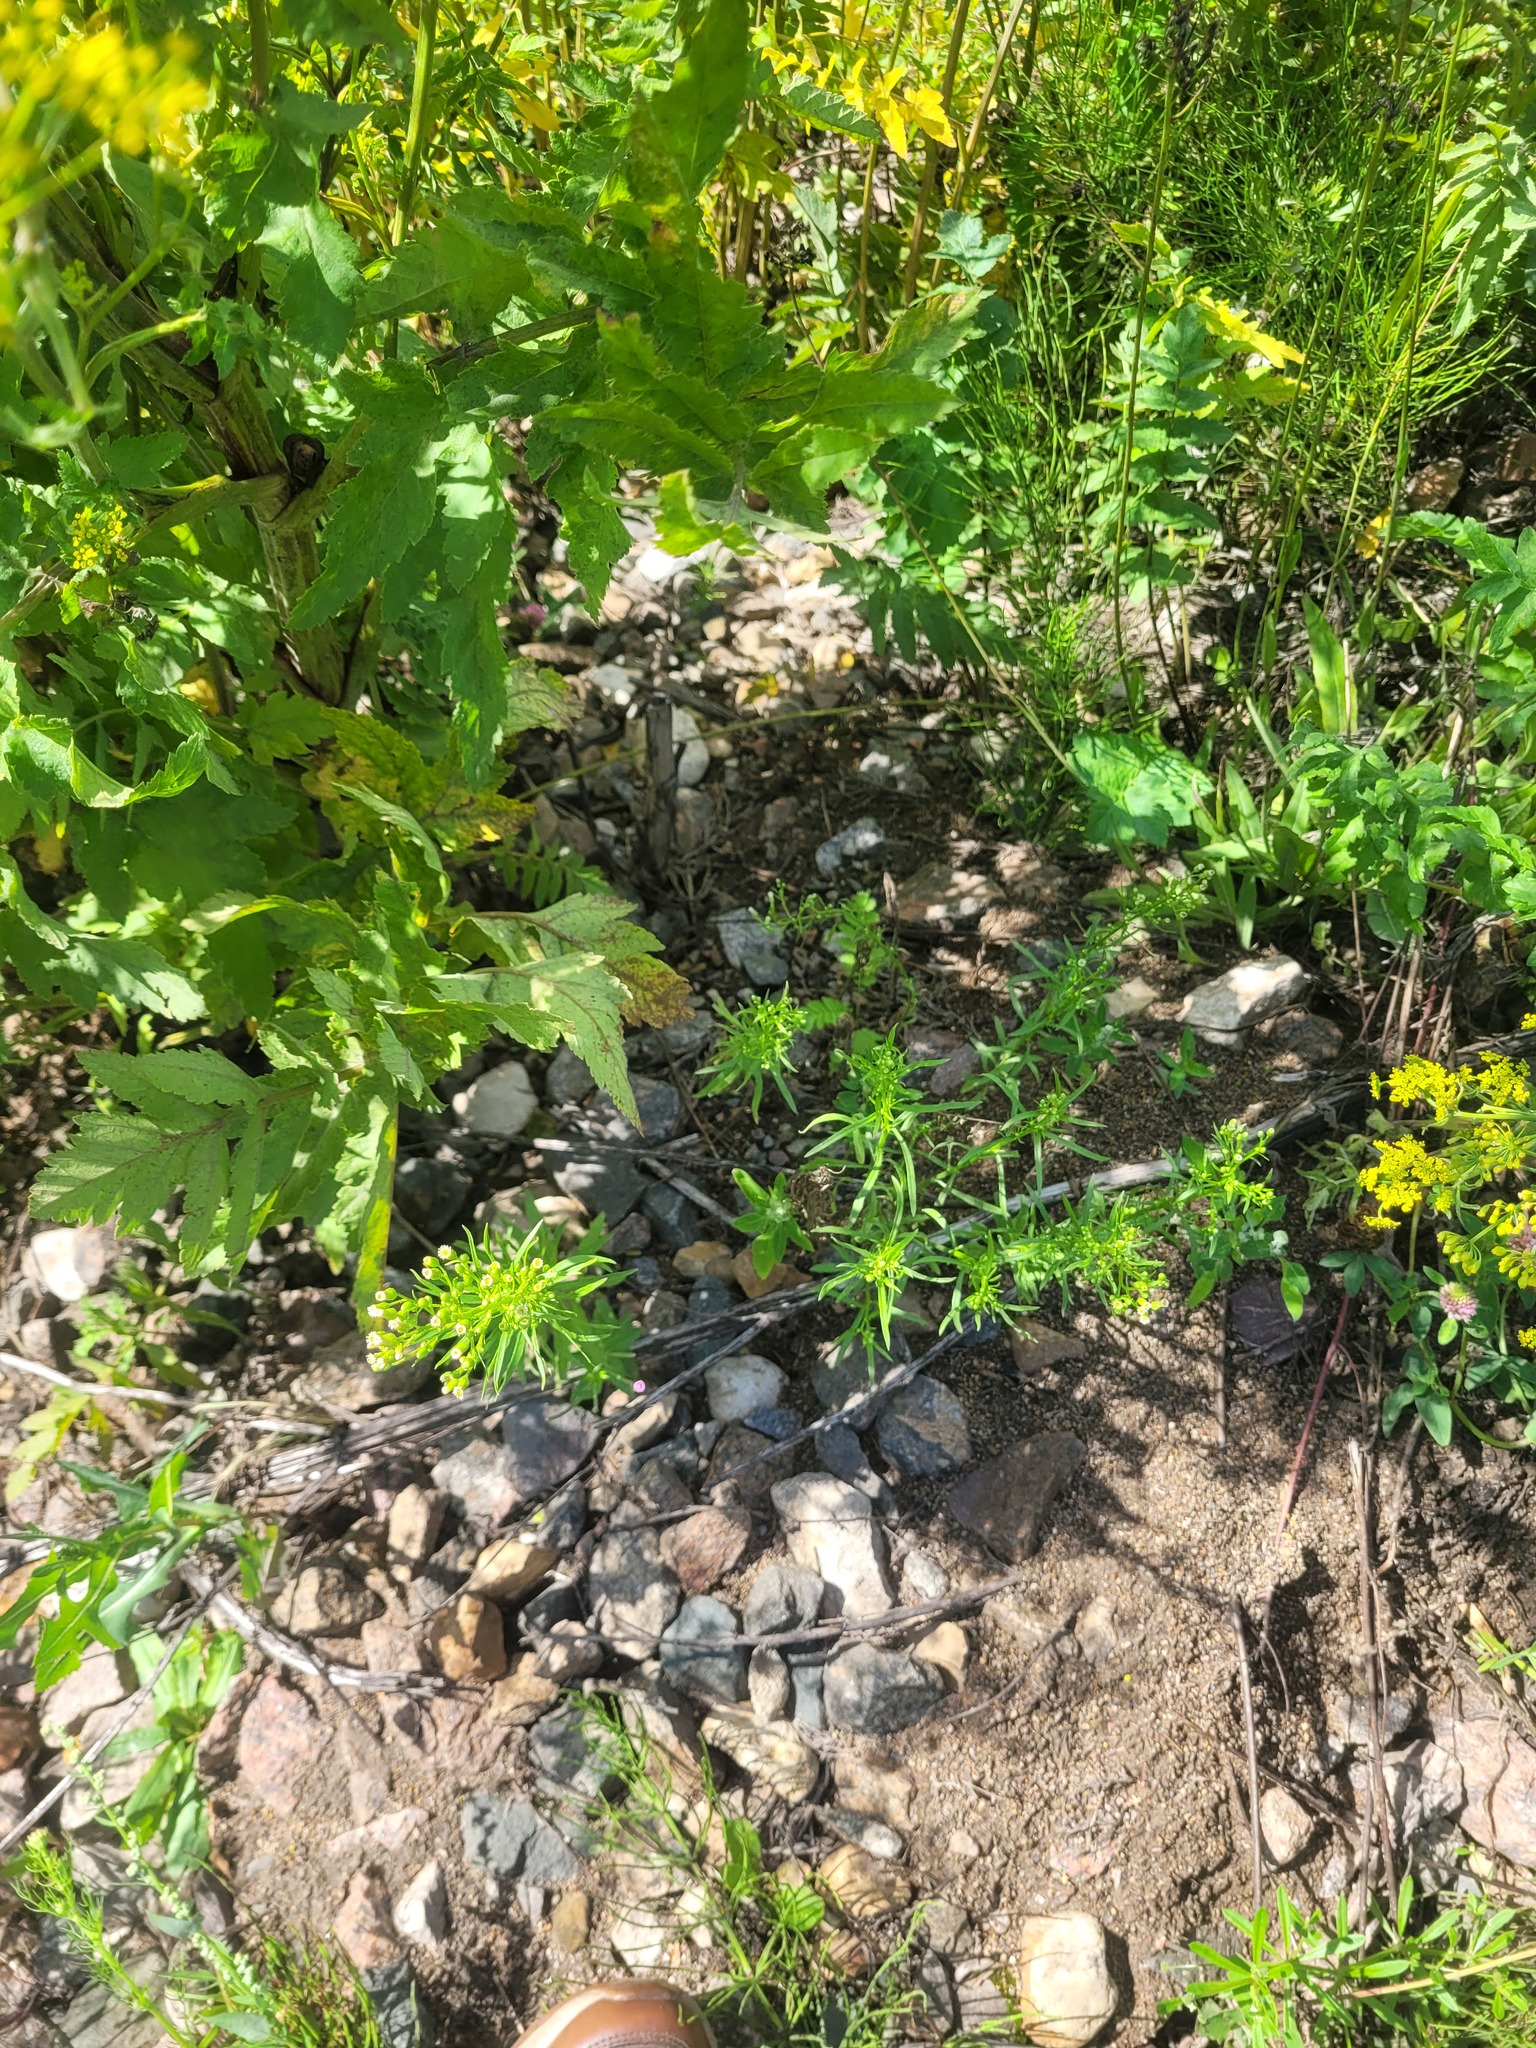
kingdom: Plantae
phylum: Tracheophyta
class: Magnoliopsida
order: Asterales
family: Asteraceae
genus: Erigeron
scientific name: Erigeron canadensis
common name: Canadian fleabane
